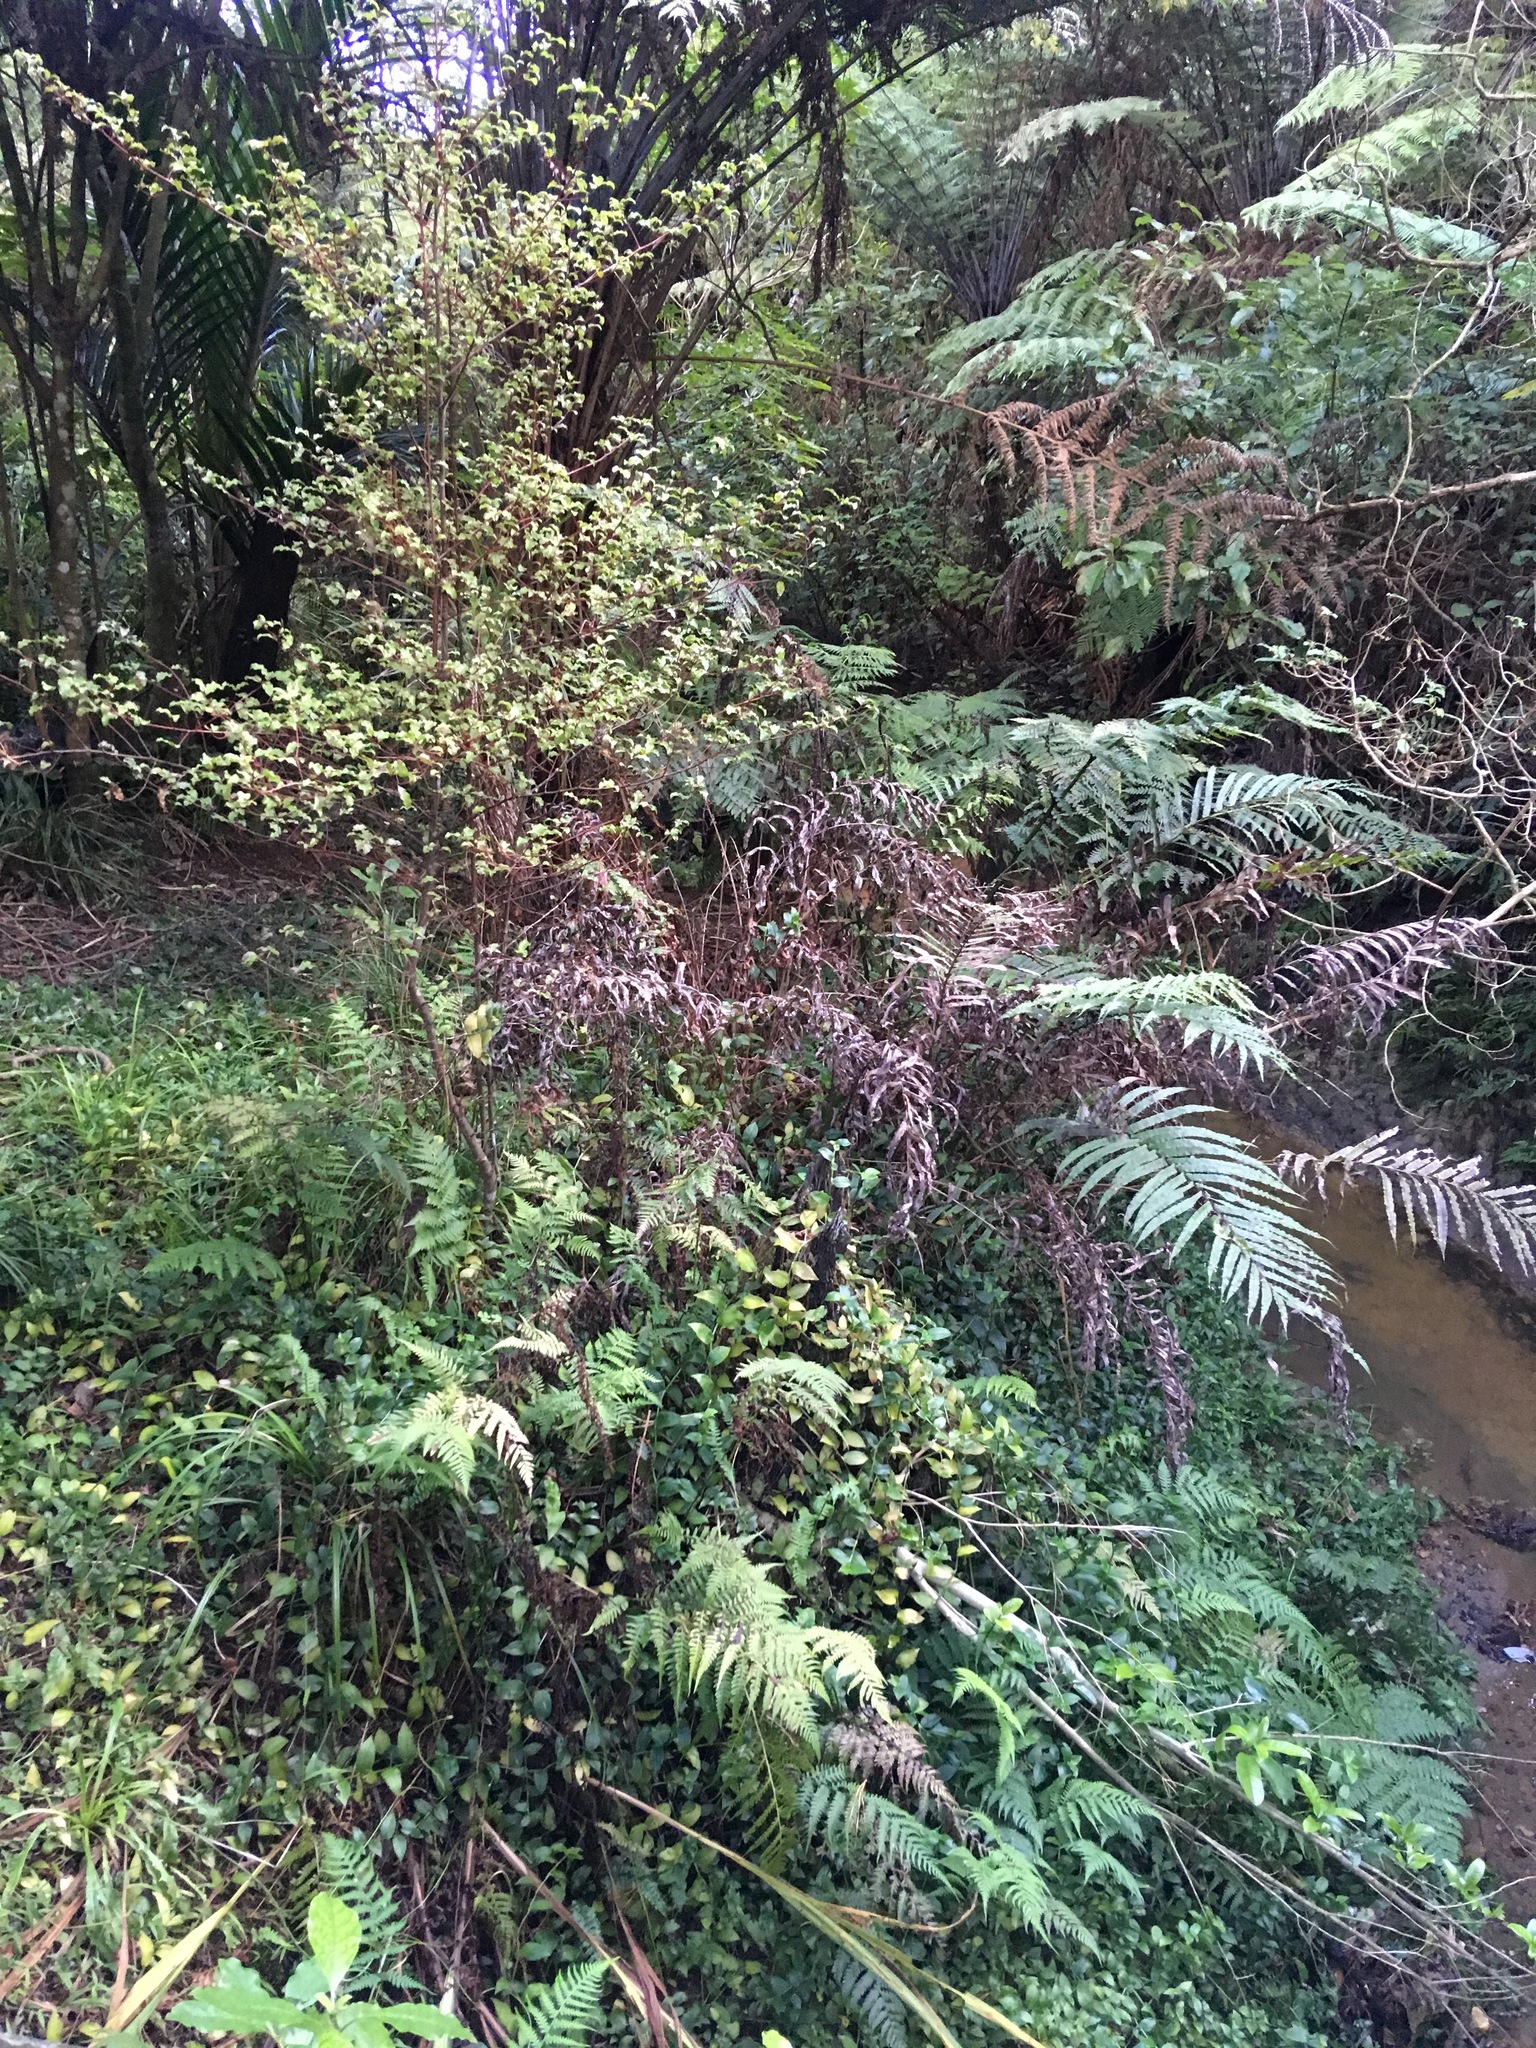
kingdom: Plantae
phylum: Tracheophyta
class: Magnoliopsida
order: Ericales
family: Primulaceae
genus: Myrsine
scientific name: Myrsine australis
